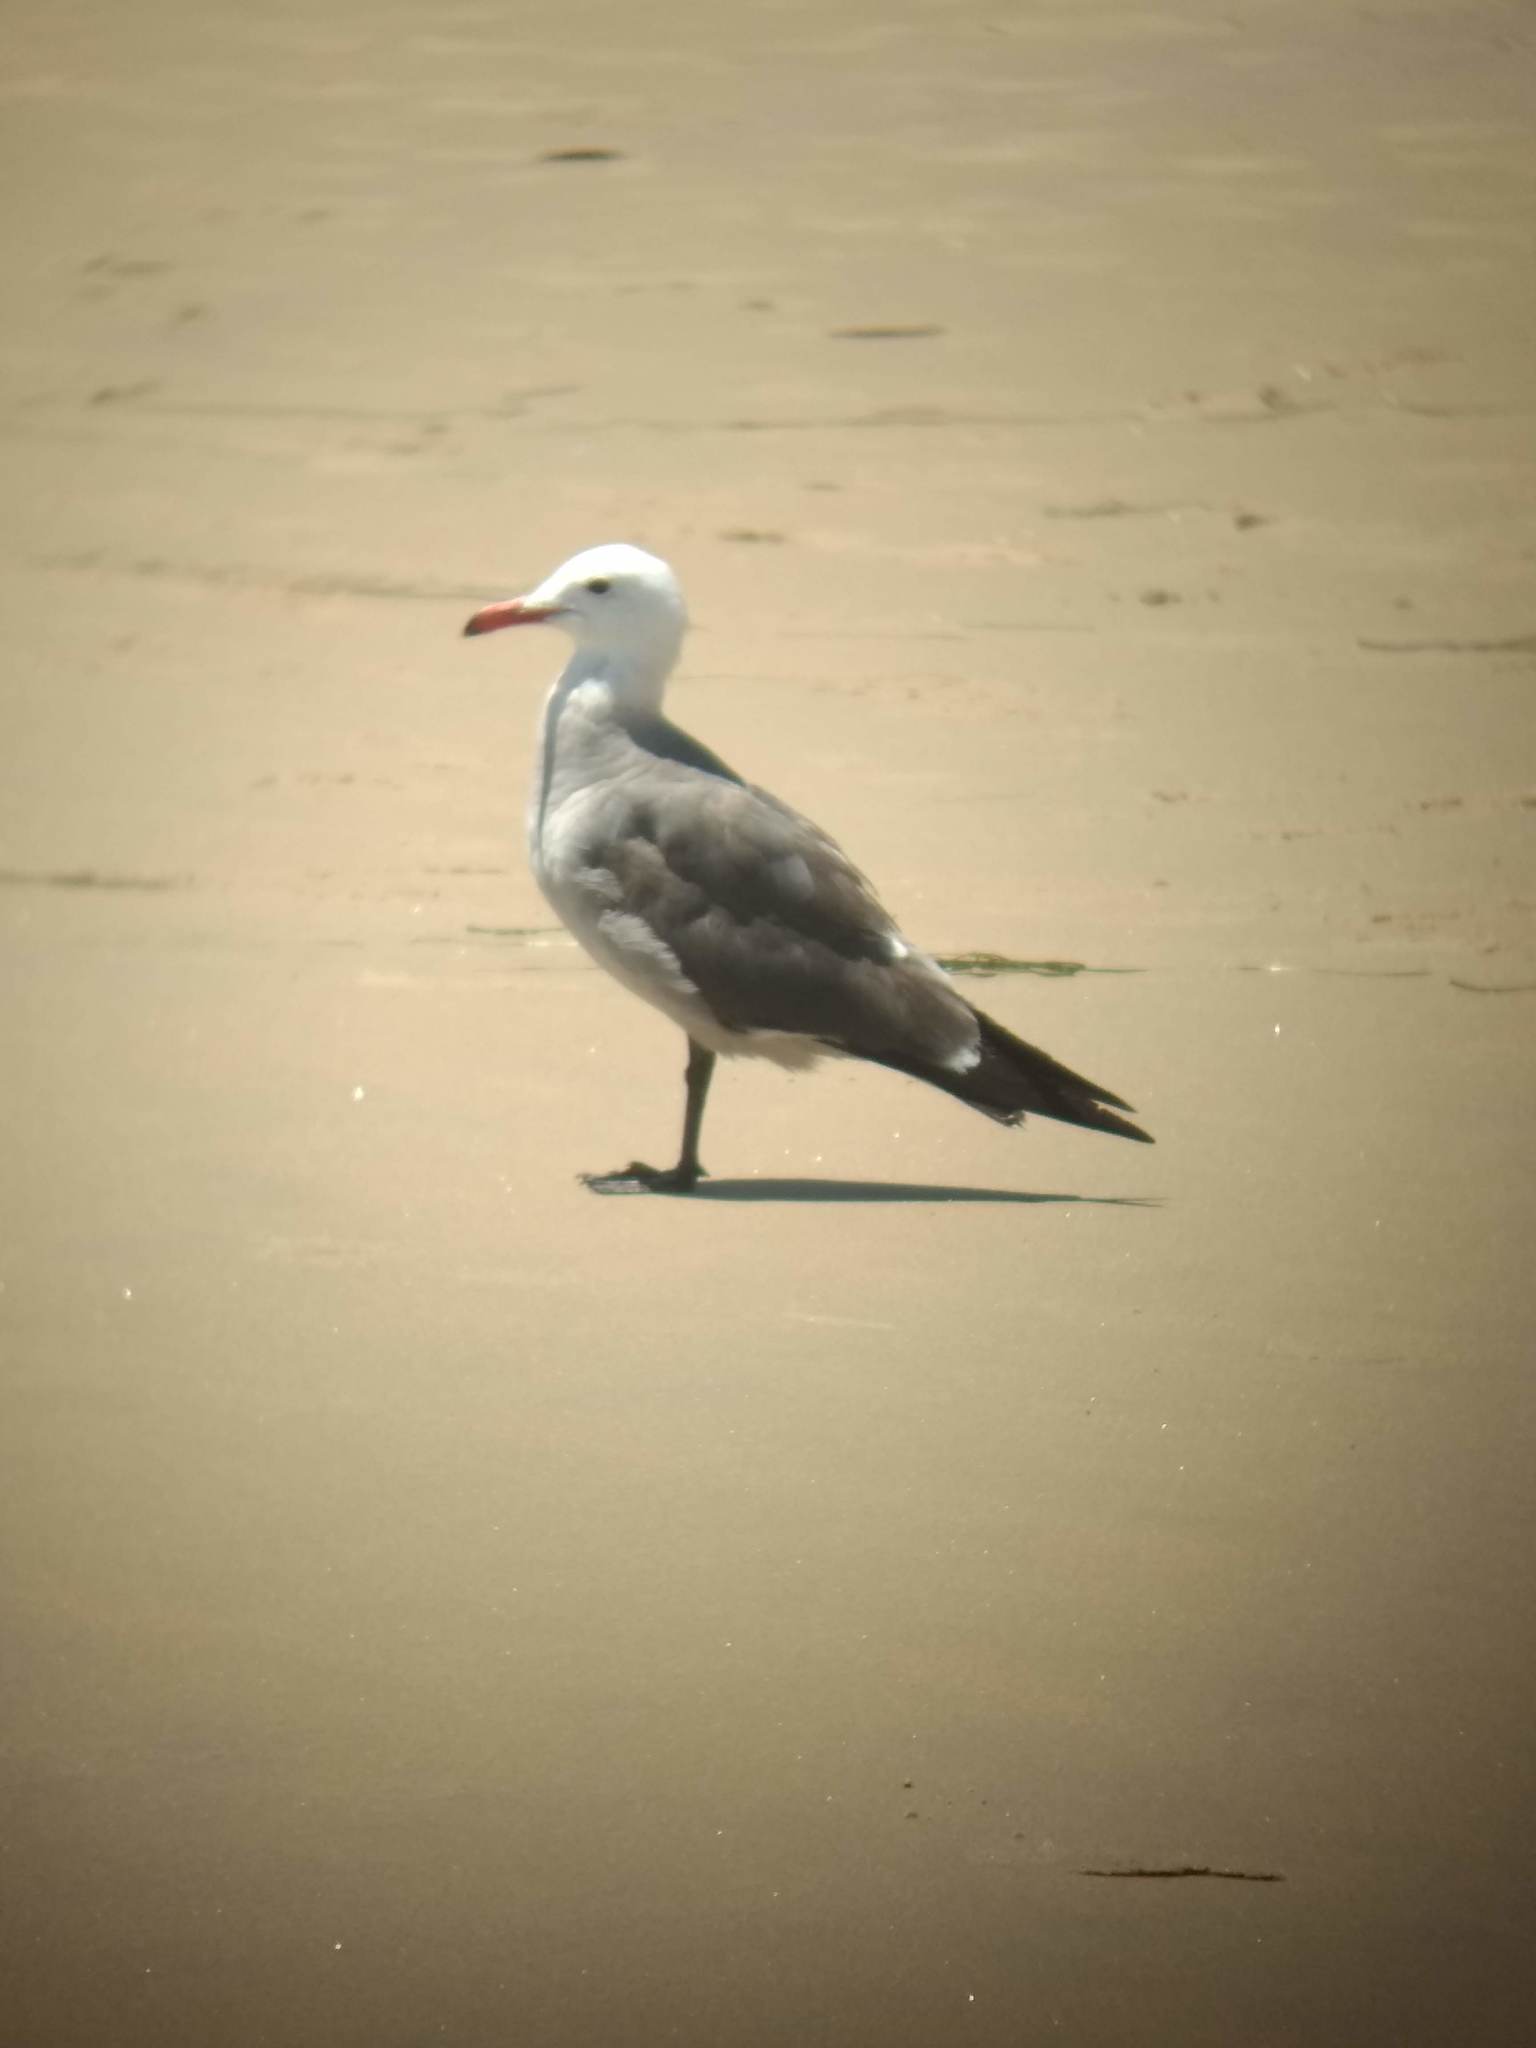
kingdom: Animalia
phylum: Chordata
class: Aves
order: Charadriiformes
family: Laridae
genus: Larus
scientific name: Larus heermanni
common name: Heermann's gull
